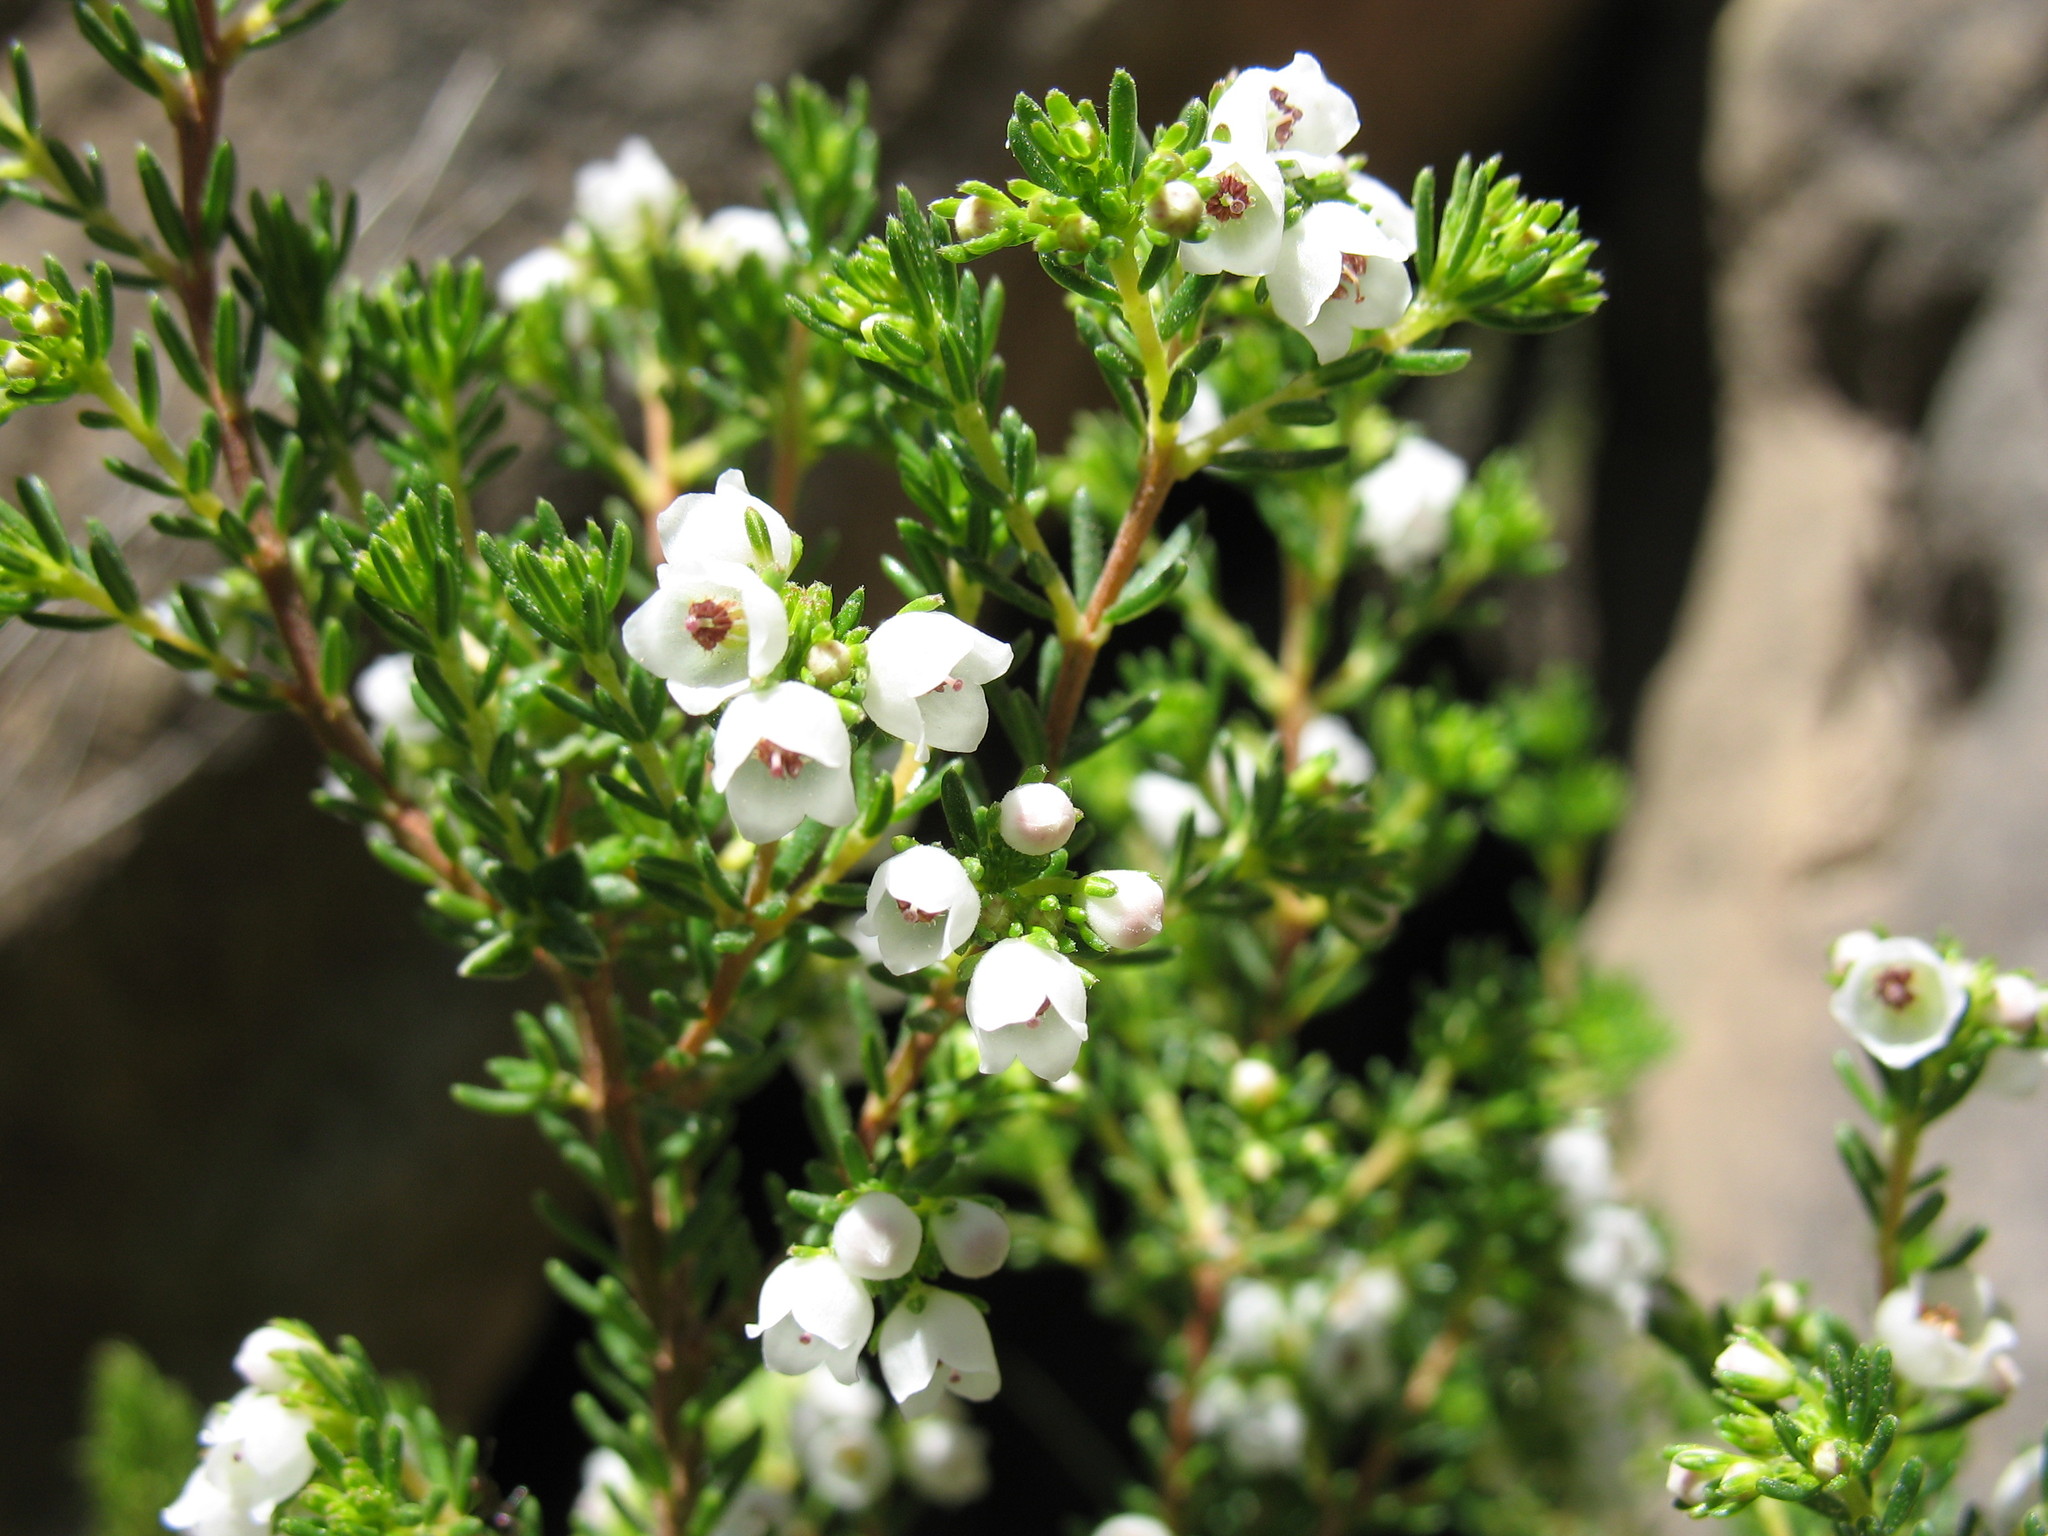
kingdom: Plantae
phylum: Tracheophyta
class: Magnoliopsida
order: Ericales
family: Ericaceae
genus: Erica
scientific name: Erica subdivaricata
